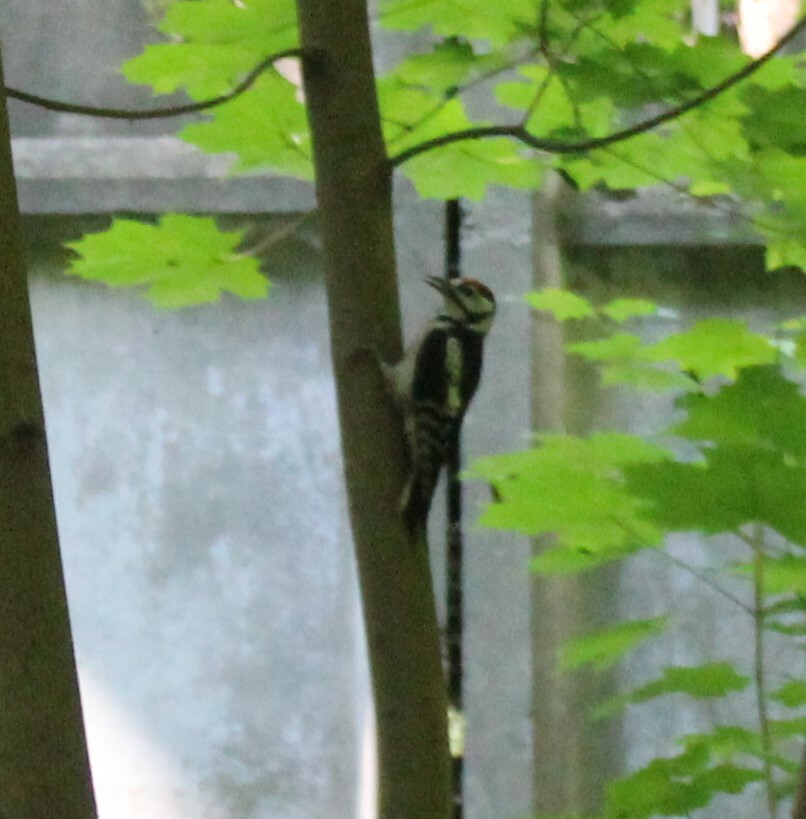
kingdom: Animalia
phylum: Chordata
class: Aves
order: Piciformes
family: Picidae
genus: Dendrocopos
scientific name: Dendrocopos major
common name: Great spotted woodpecker
